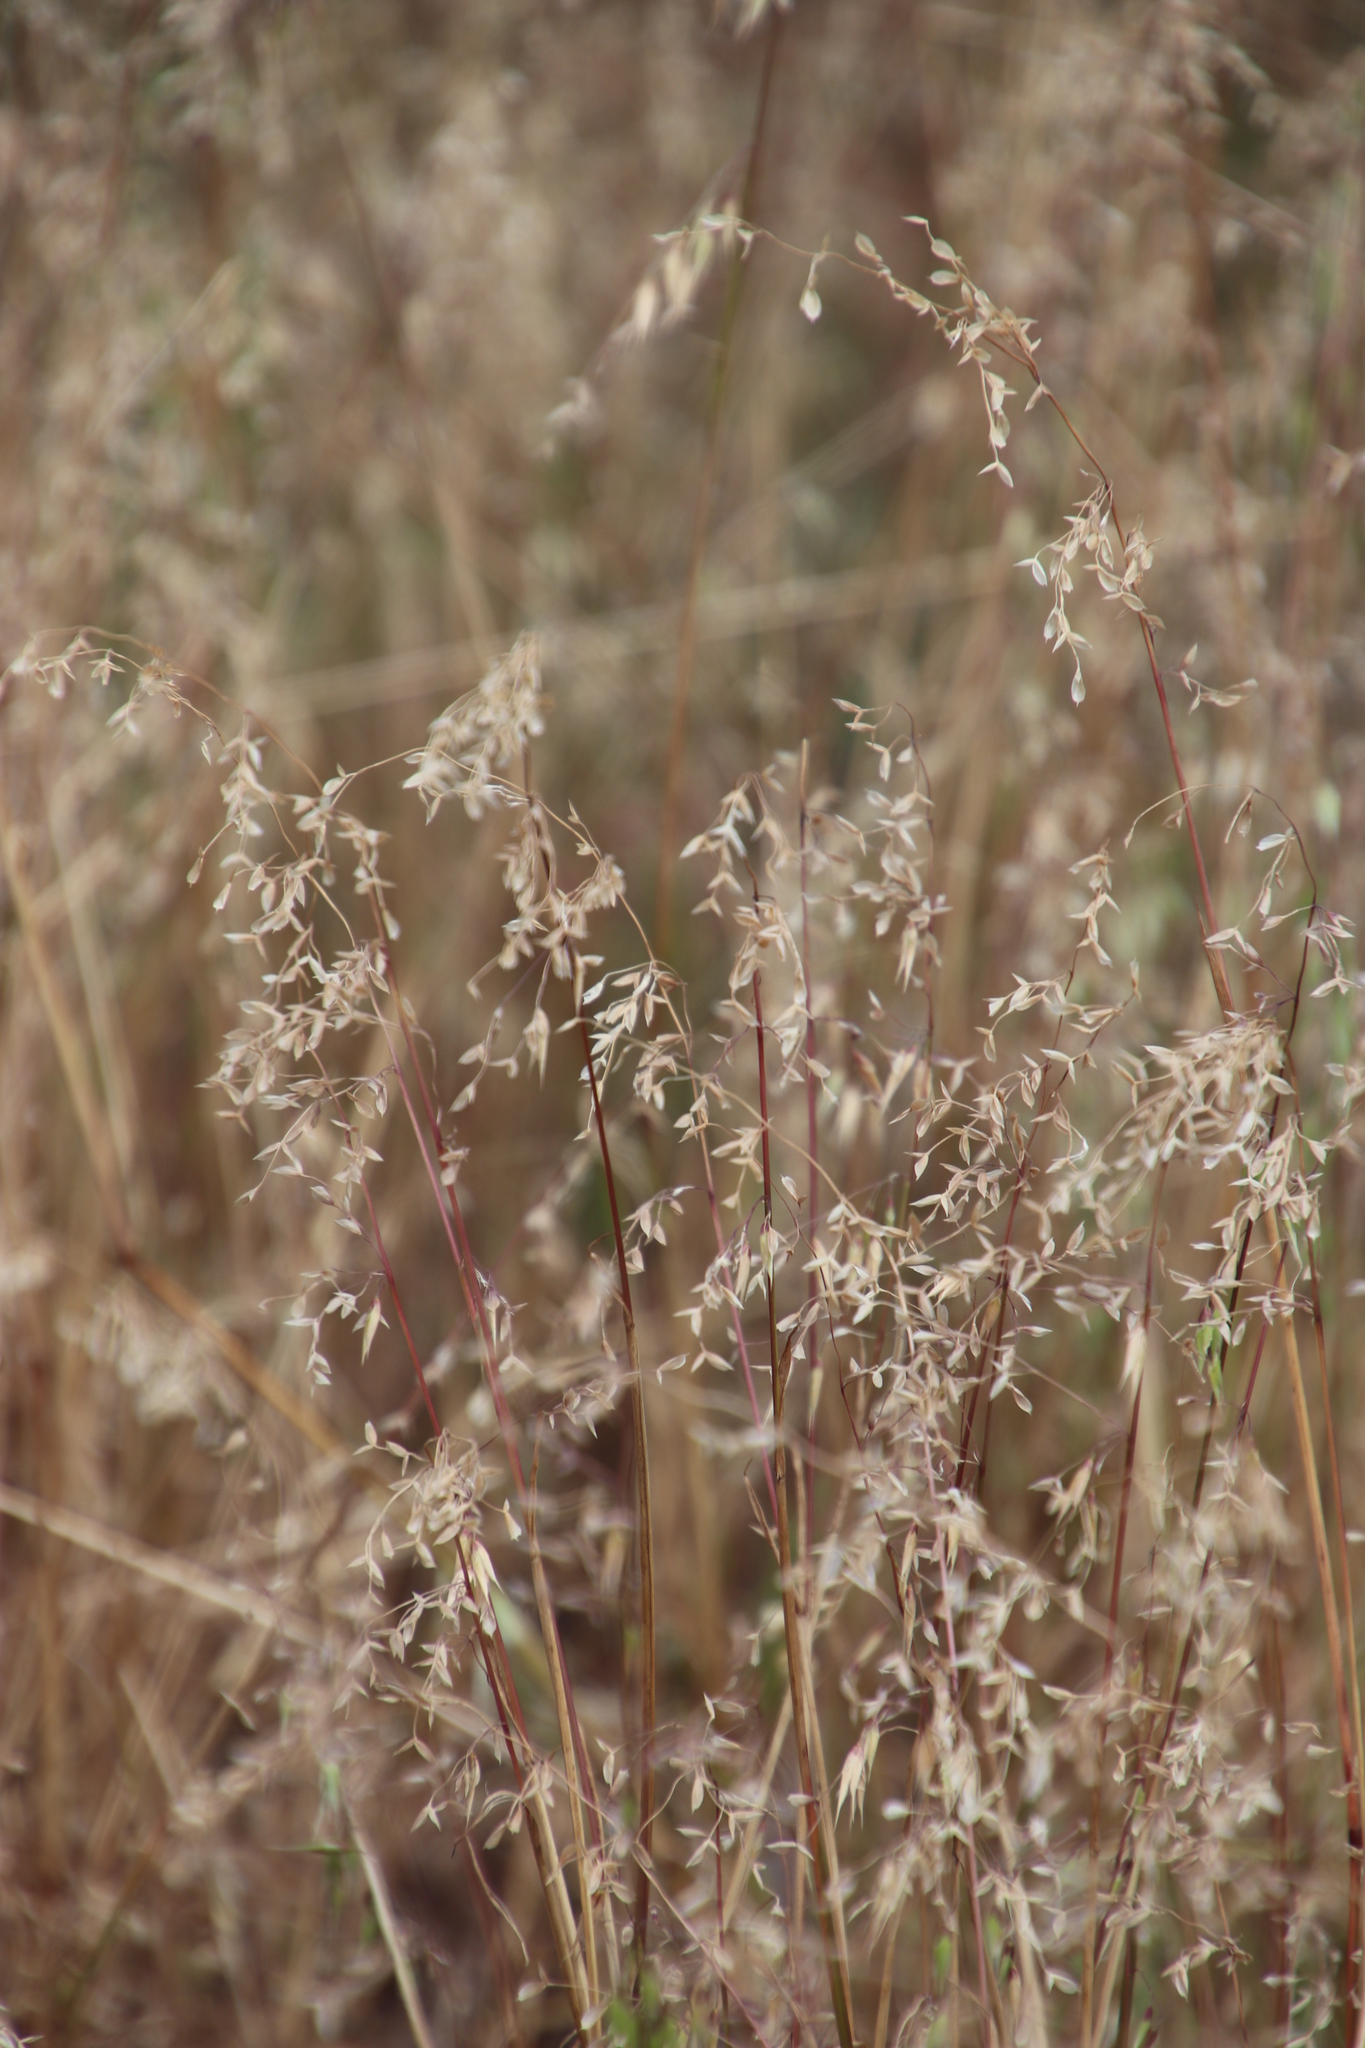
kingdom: Plantae
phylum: Tracheophyta
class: Liliopsida
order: Poales
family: Poaceae
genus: Ehrharta
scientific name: Ehrharta longiflora
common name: Longflowered veldtgrass
